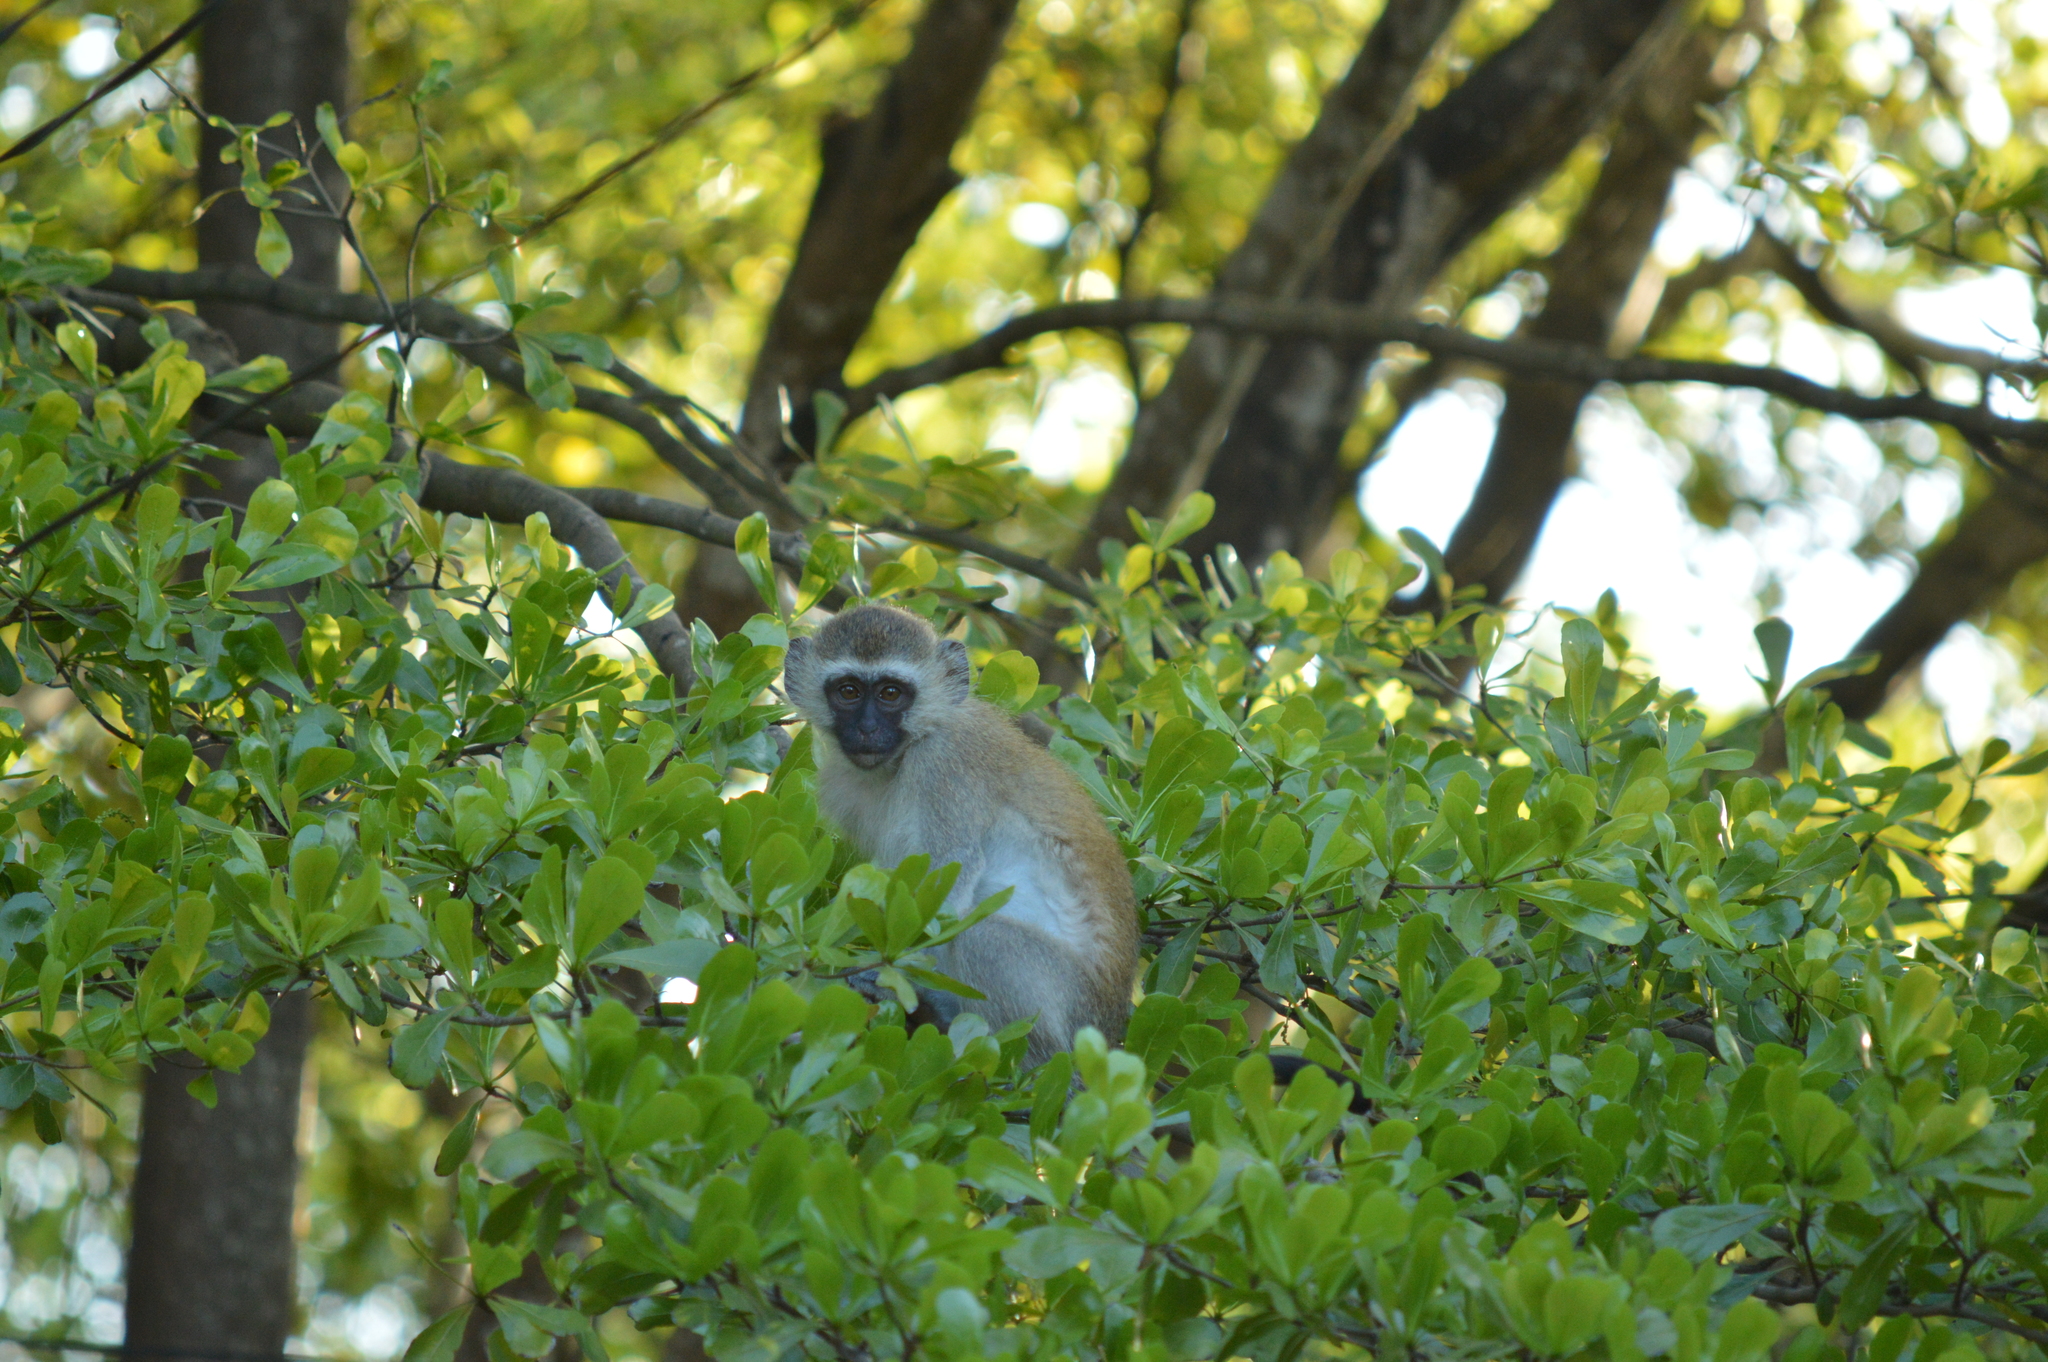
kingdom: Animalia
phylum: Chordata
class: Mammalia
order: Primates
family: Cercopithecidae
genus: Chlorocebus
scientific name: Chlorocebus pygerythrus
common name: Vervet monkey
